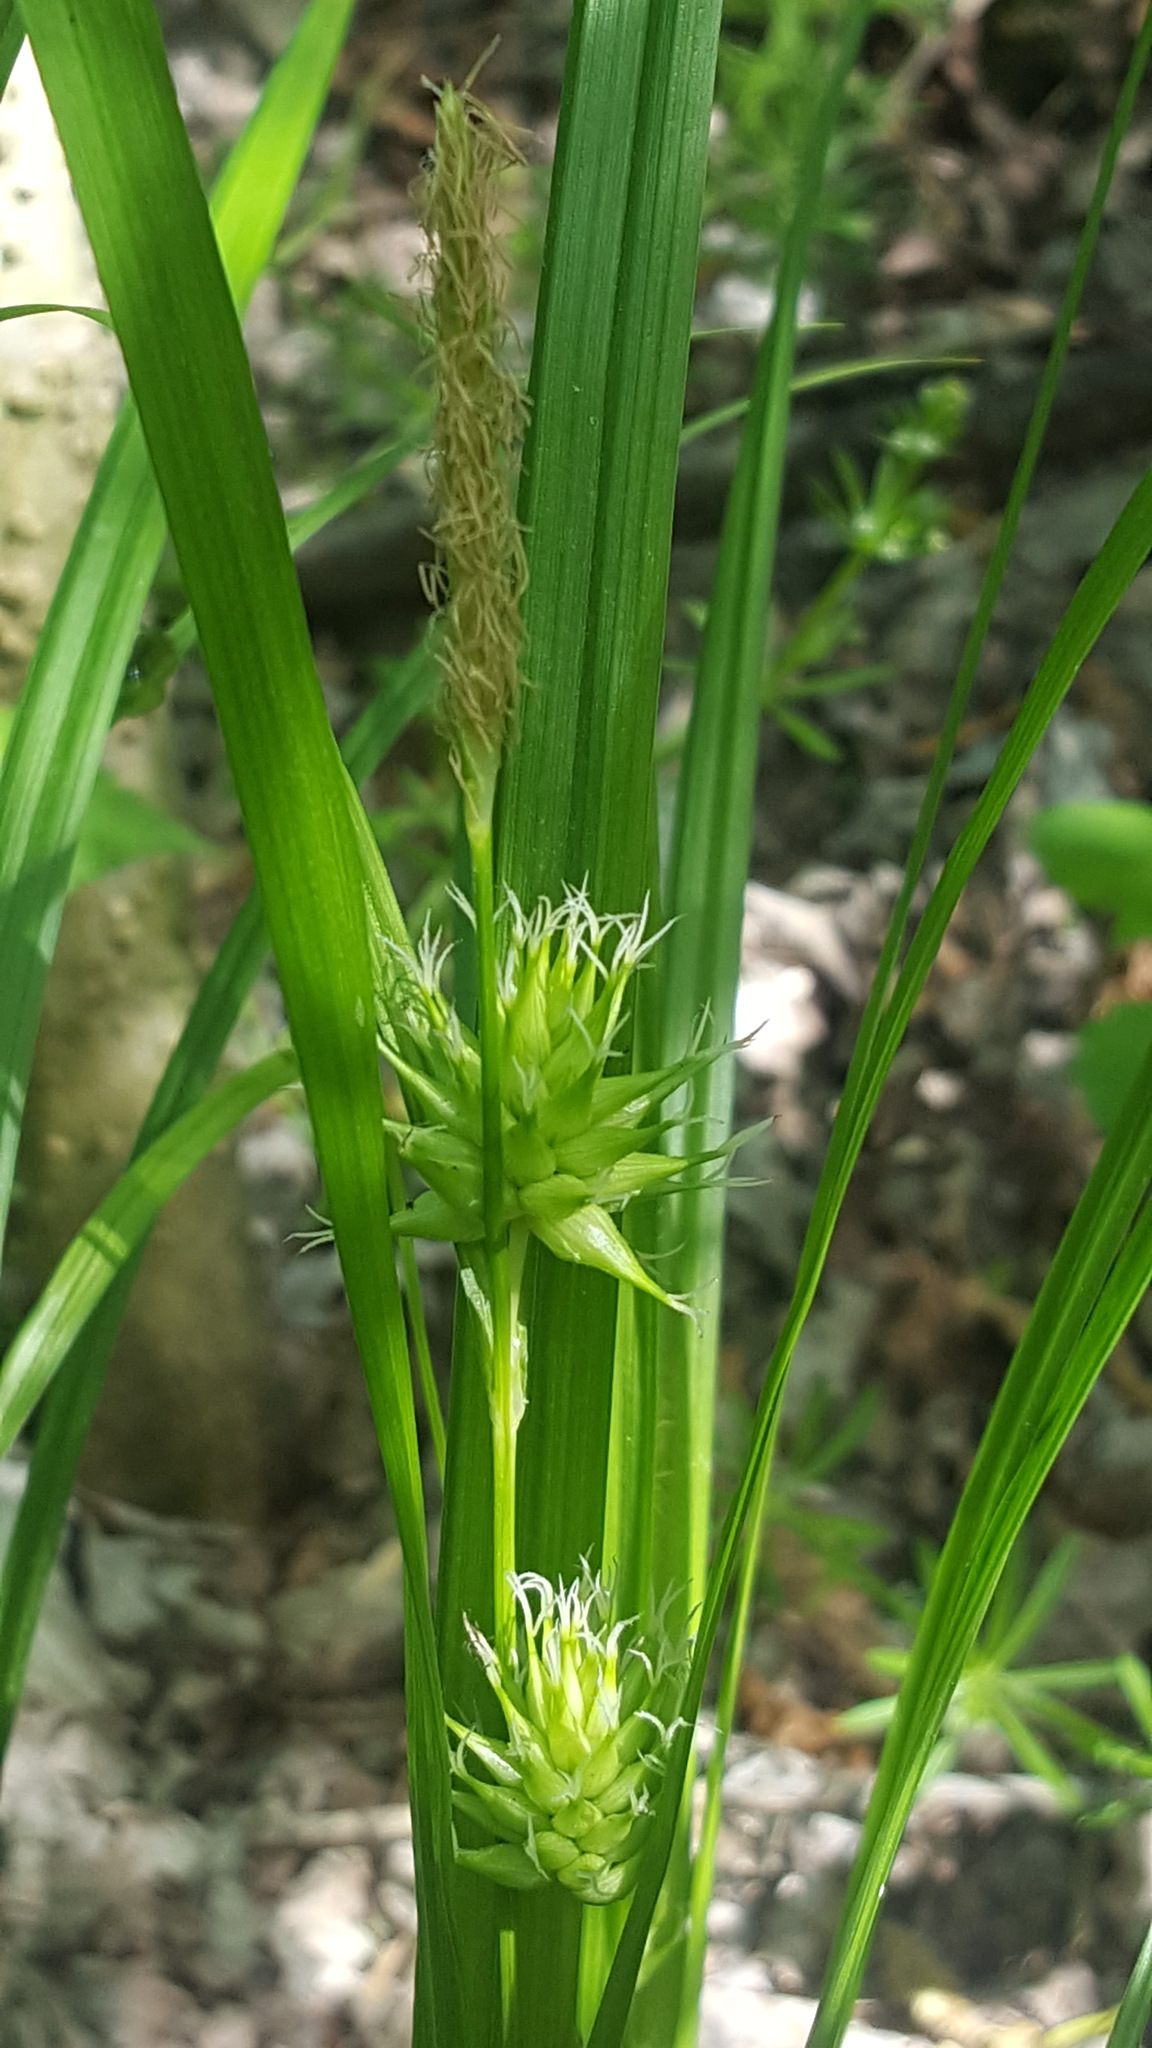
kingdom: Plantae
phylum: Tracheophyta
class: Liliopsida
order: Poales
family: Cyperaceae
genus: Carex
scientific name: Carex grayi
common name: Asa gray's sedge
